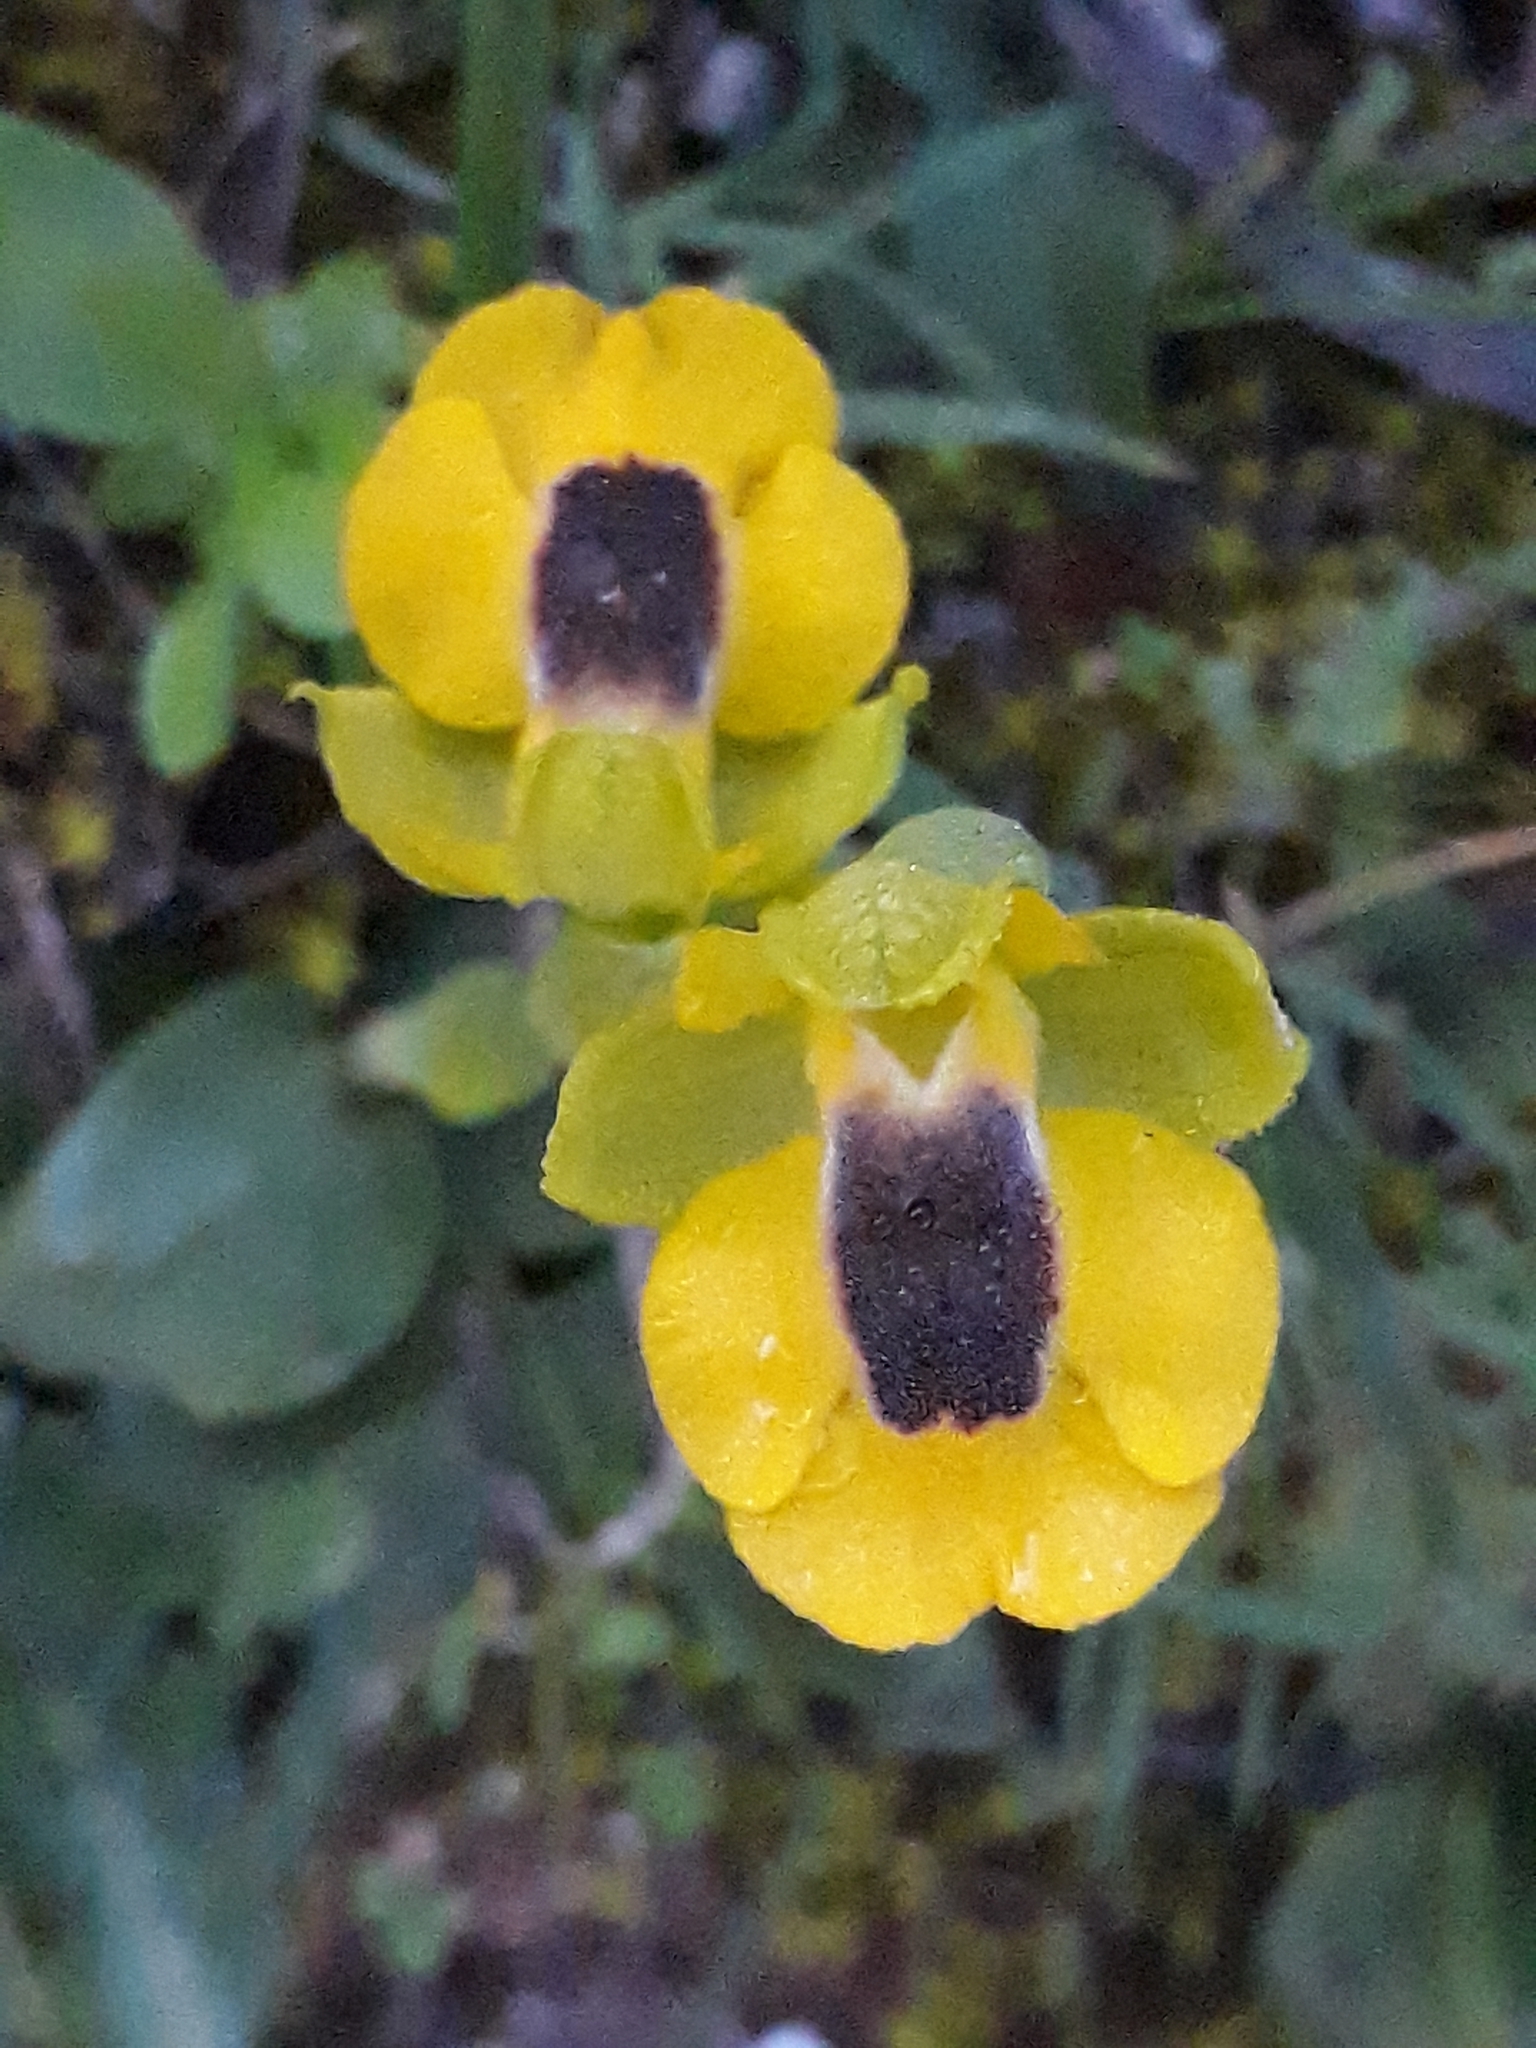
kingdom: Plantae
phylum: Tracheophyta
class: Liliopsida
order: Asparagales
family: Orchidaceae
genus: Ophrys
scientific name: Ophrys lutea
